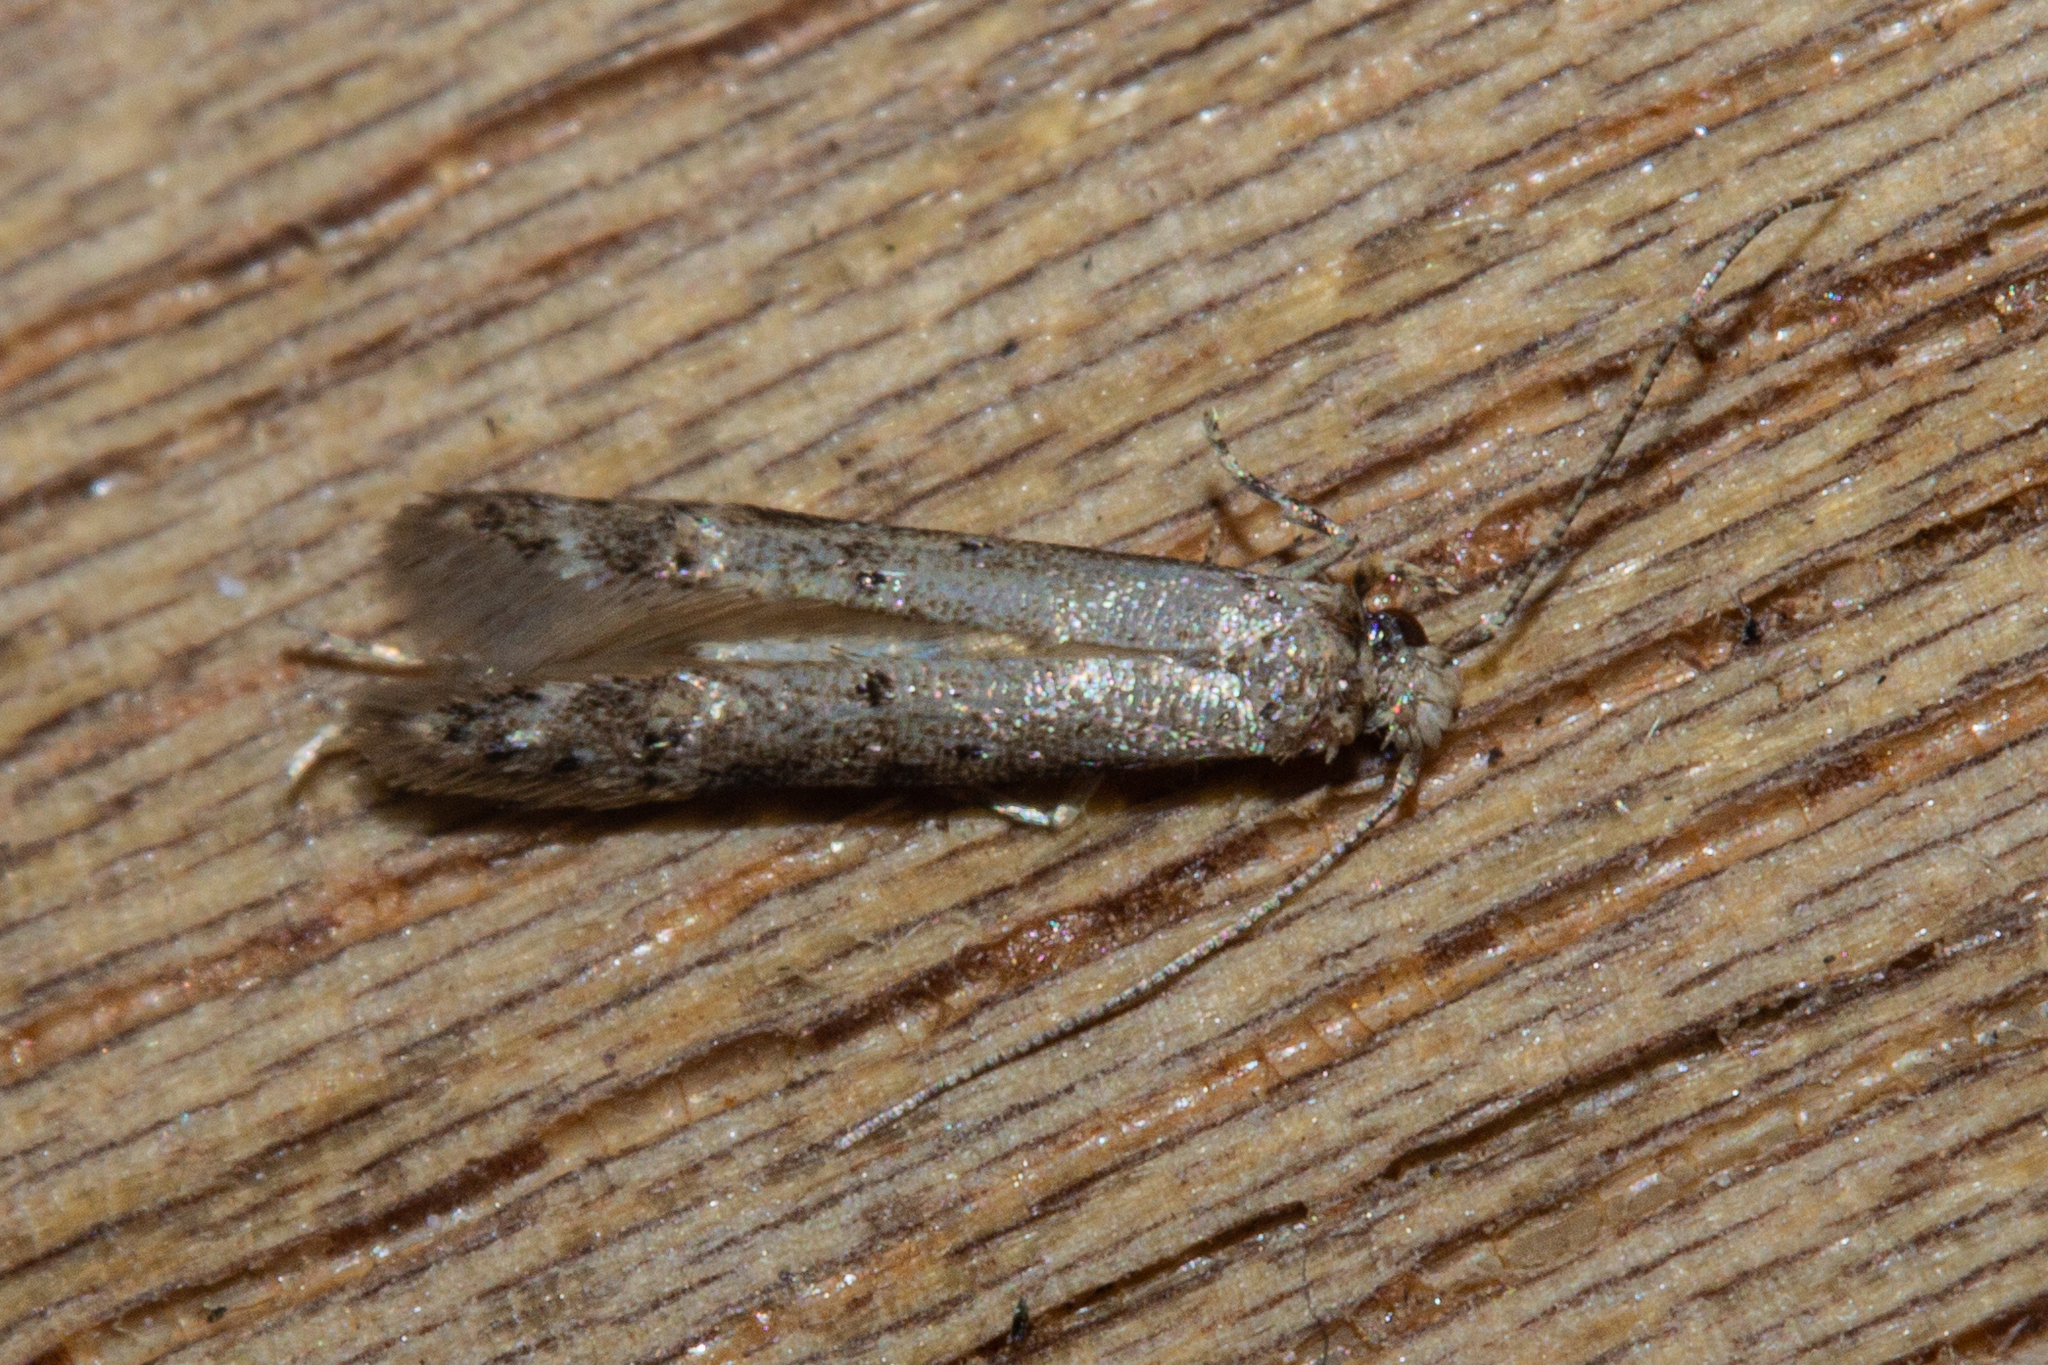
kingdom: Animalia
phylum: Arthropoda
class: Insecta
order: Lepidoptera
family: Elachistidae
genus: Microcolona
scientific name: Microcolona limodes
